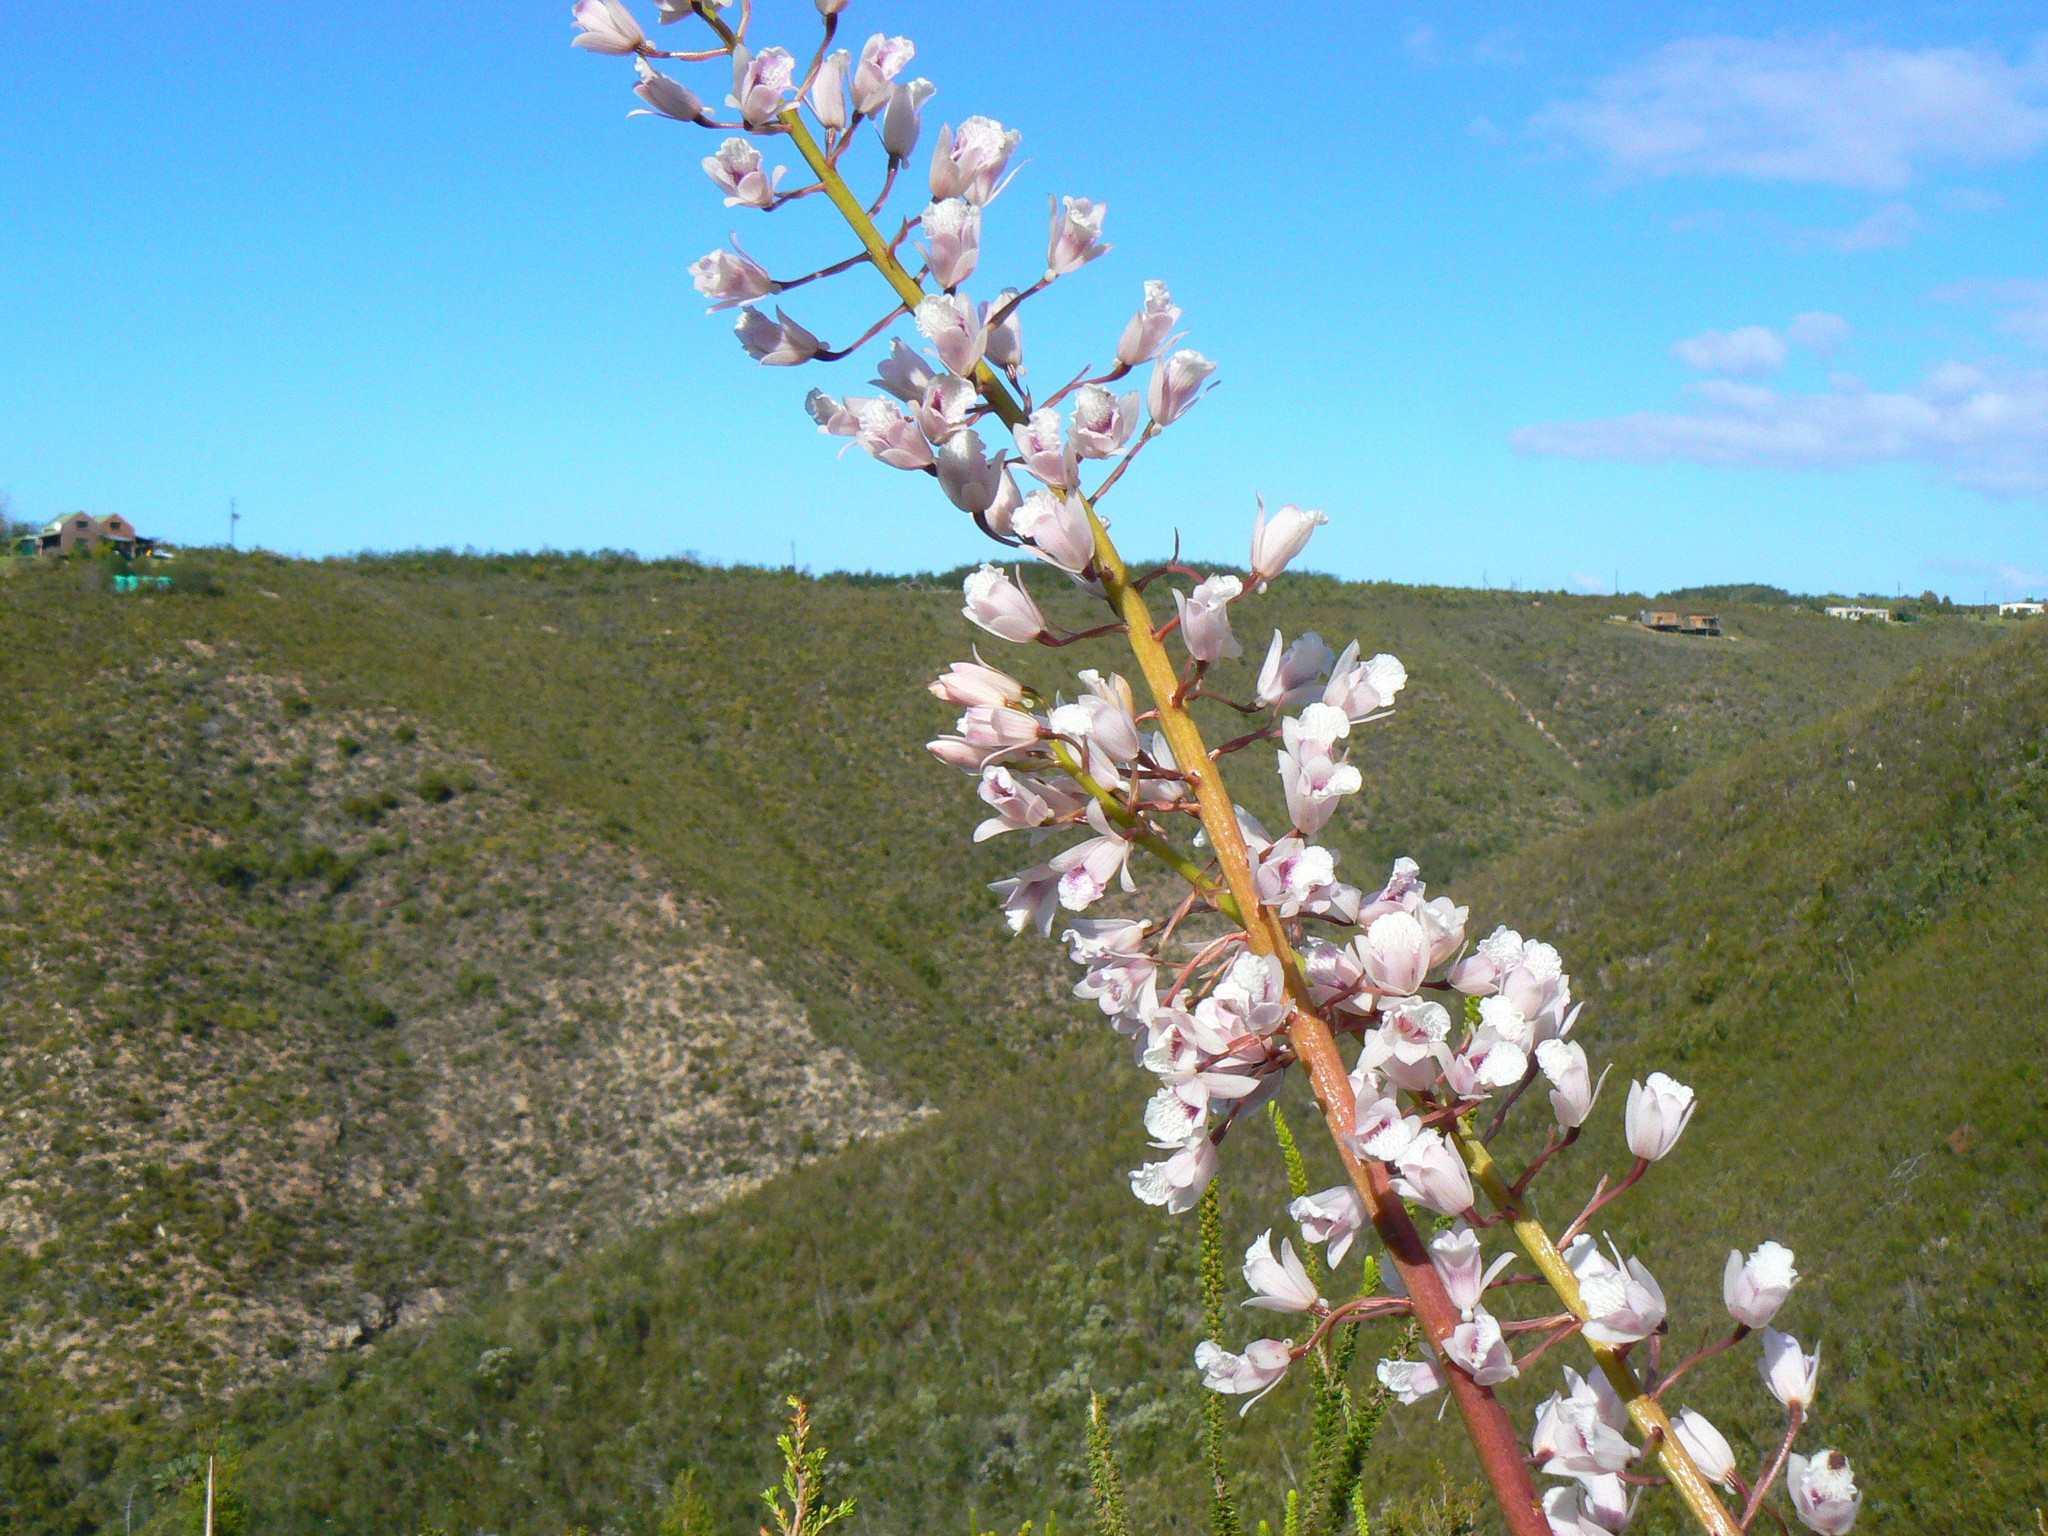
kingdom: Plantae
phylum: Tracheophyta
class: Liliopsida
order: Asparagales
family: Orchidaceae
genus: Eulophia
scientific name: Eulophia barbata
